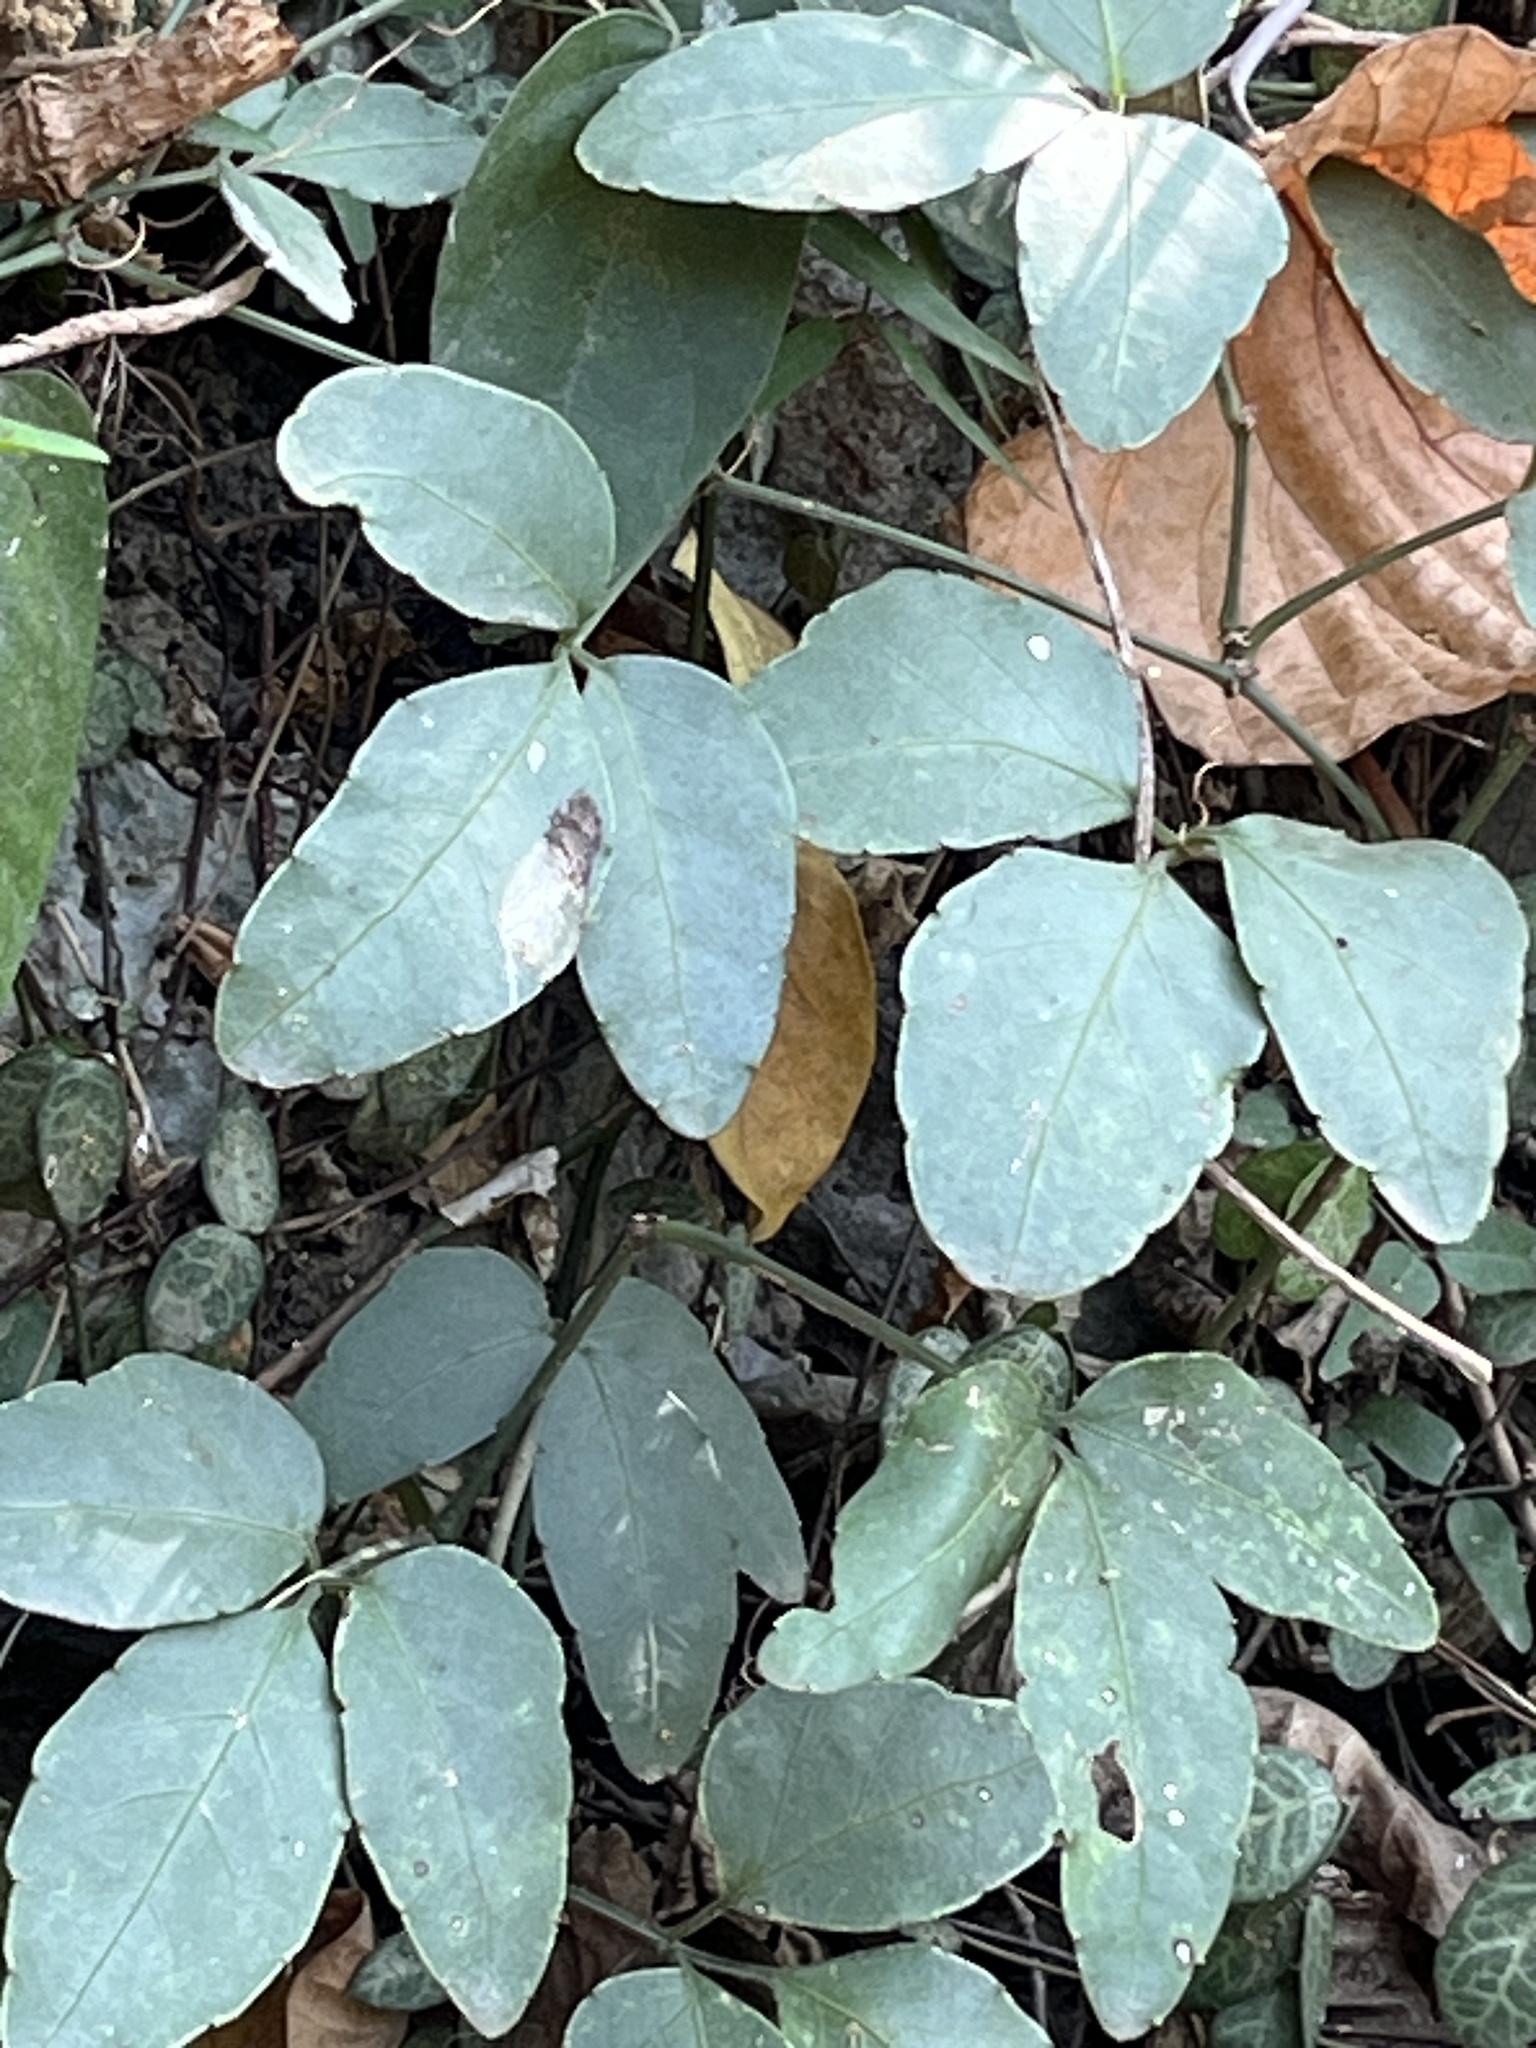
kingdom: Plantae
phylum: Tracheophyta
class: Magnoliopsida
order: Vitales
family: Vitaceae
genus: Tetrastigma
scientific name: Tetrastigma formosanum
